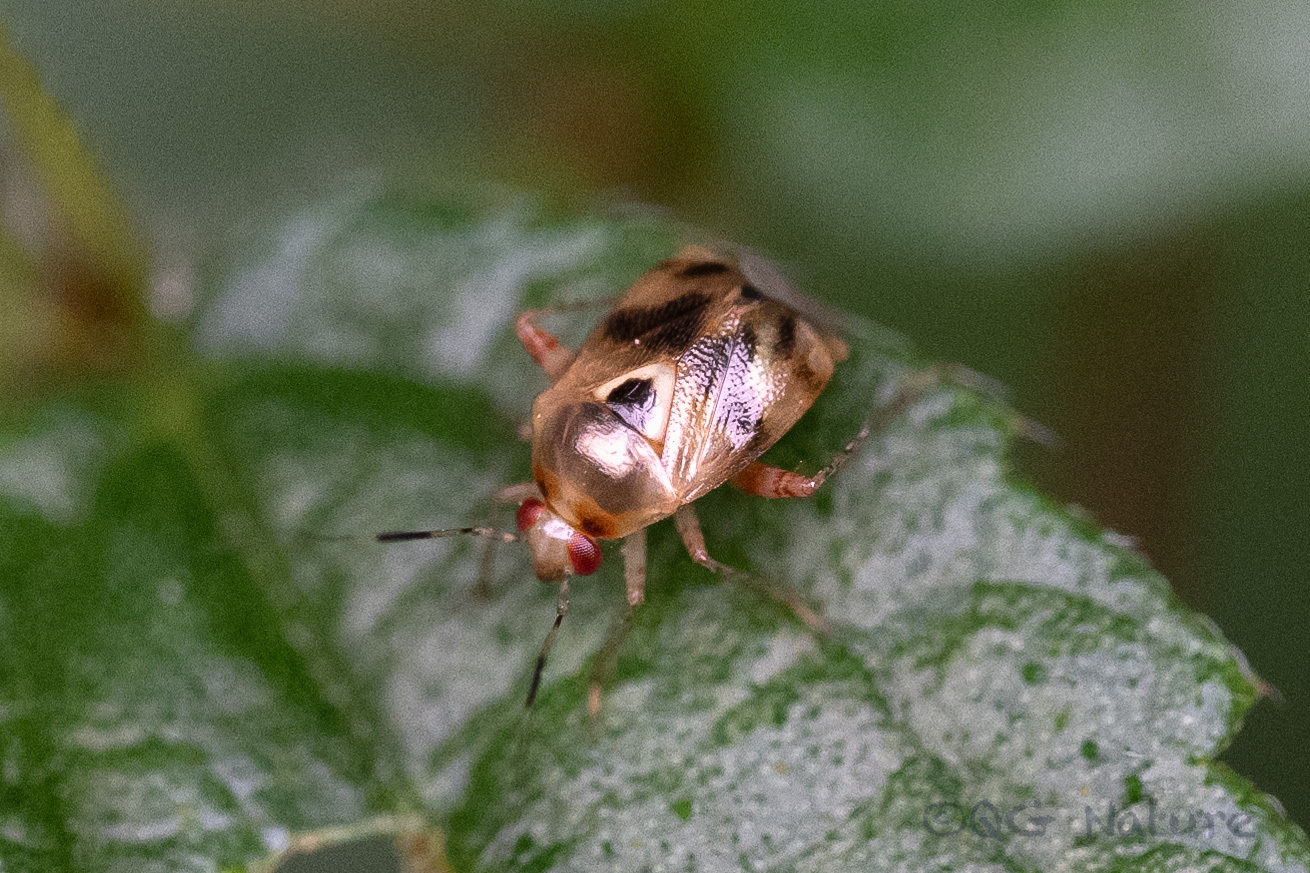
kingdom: Animalia
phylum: Arthropoda
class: Insecta
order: Hemiptera
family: Miridae
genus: Sabactiopus
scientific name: Sabactiopus sauteri
